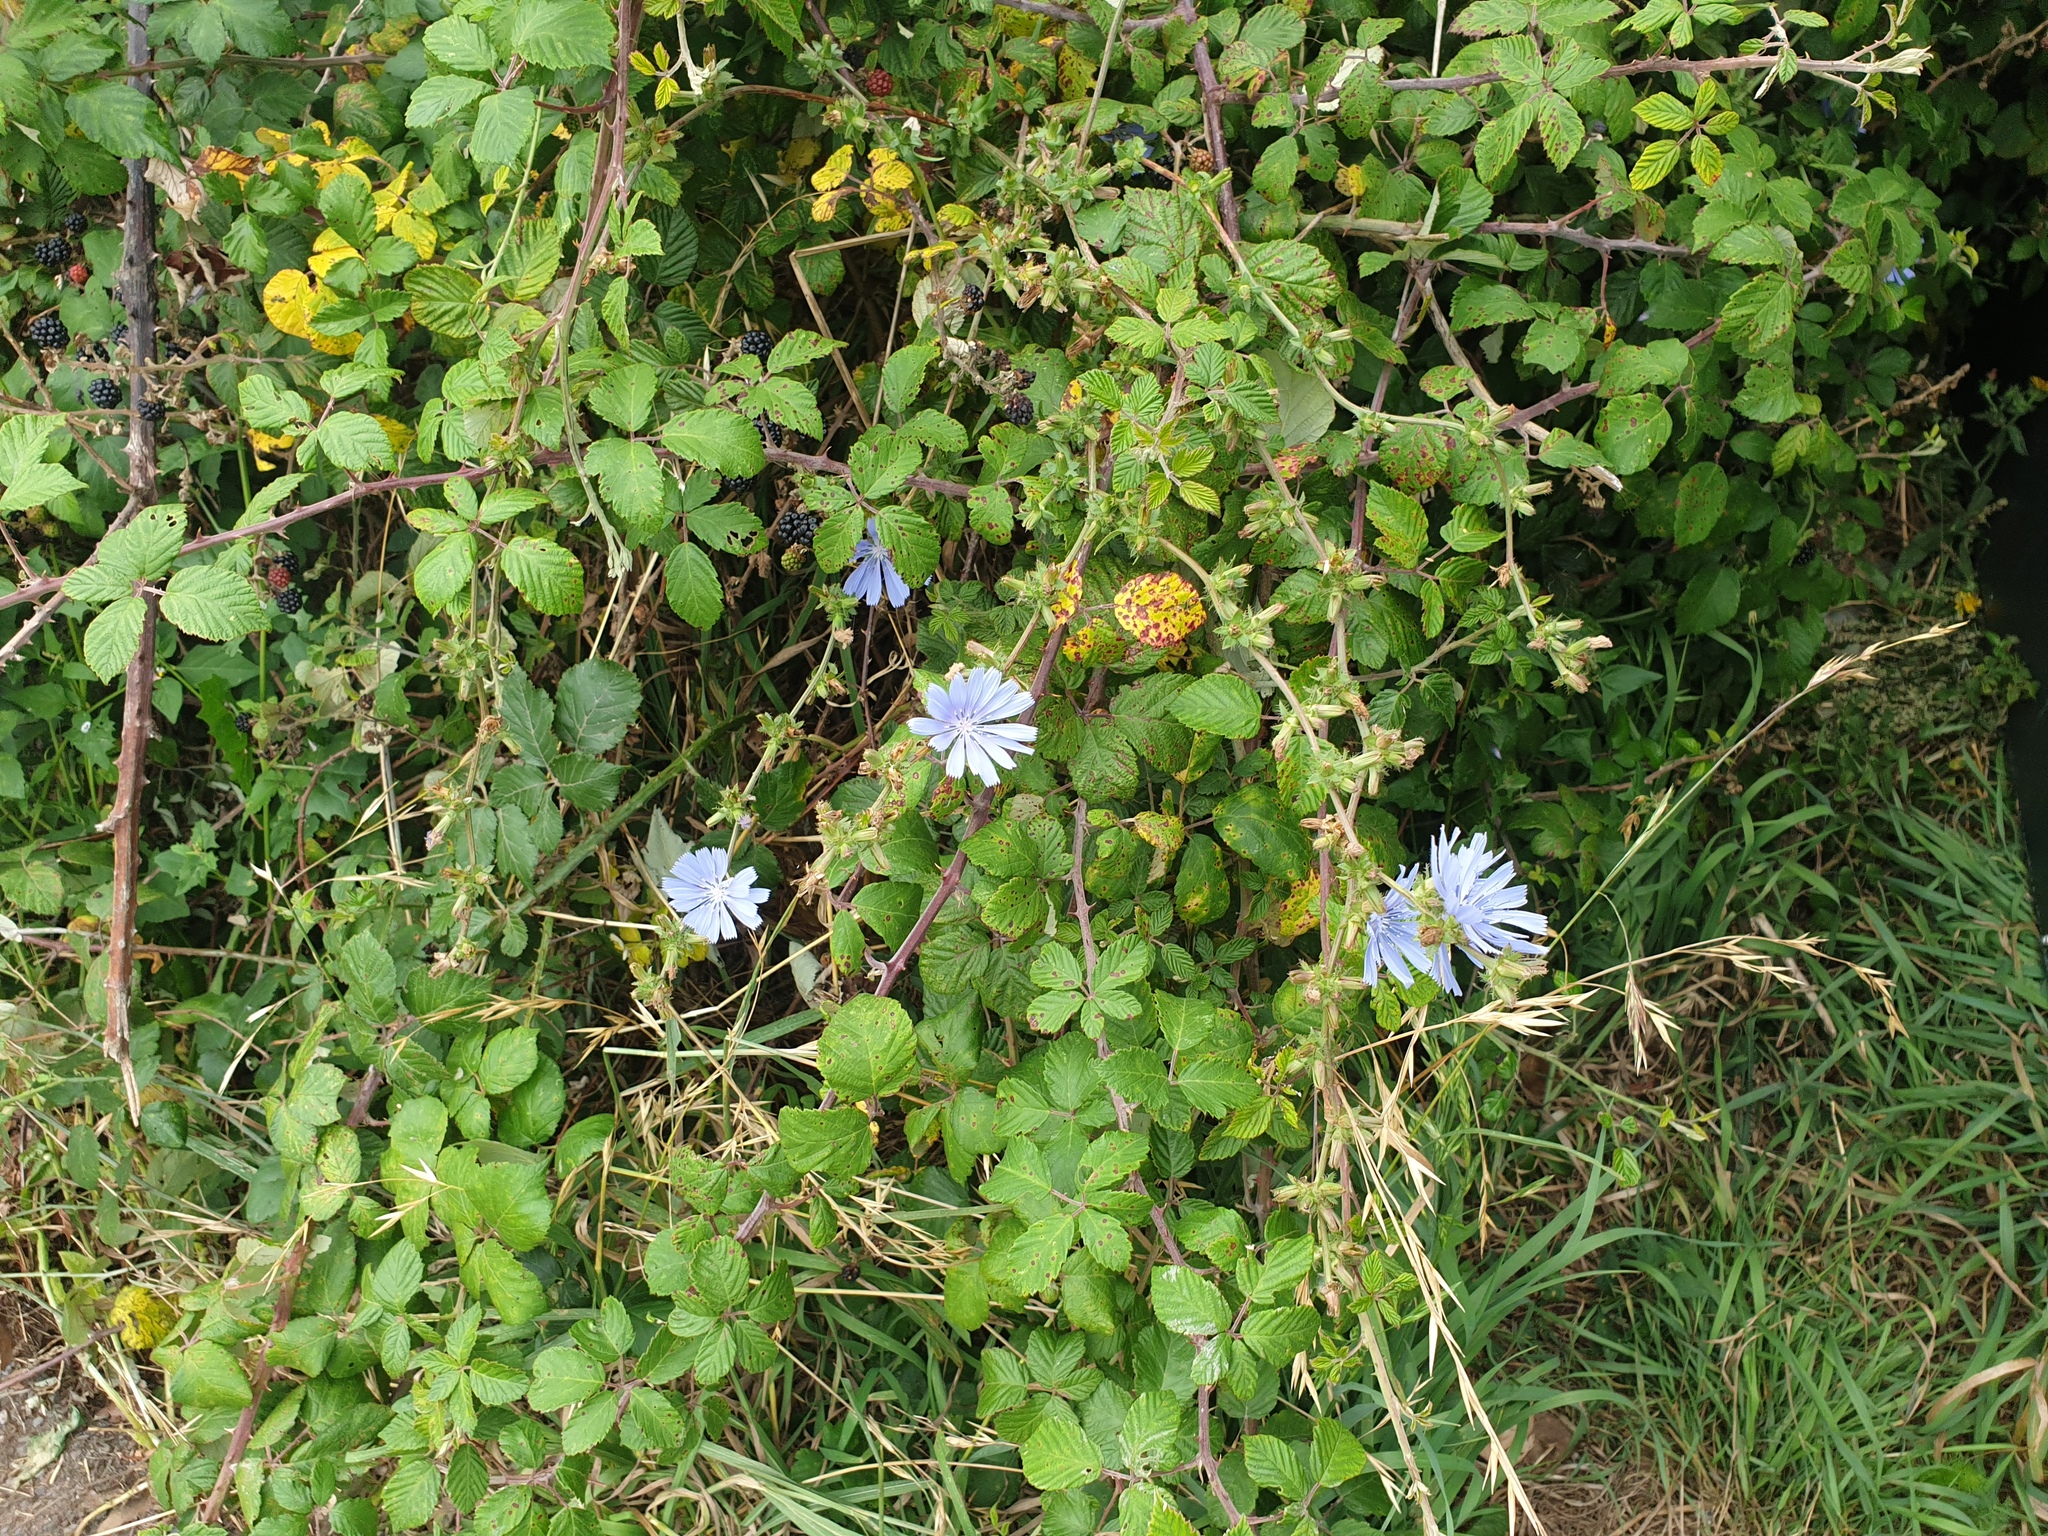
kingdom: Plantae
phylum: Tracheophyta
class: Magnoliopsida
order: Asterales
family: Asteraceae
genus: Cichorium
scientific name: Cichorium intybus
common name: Chicory
